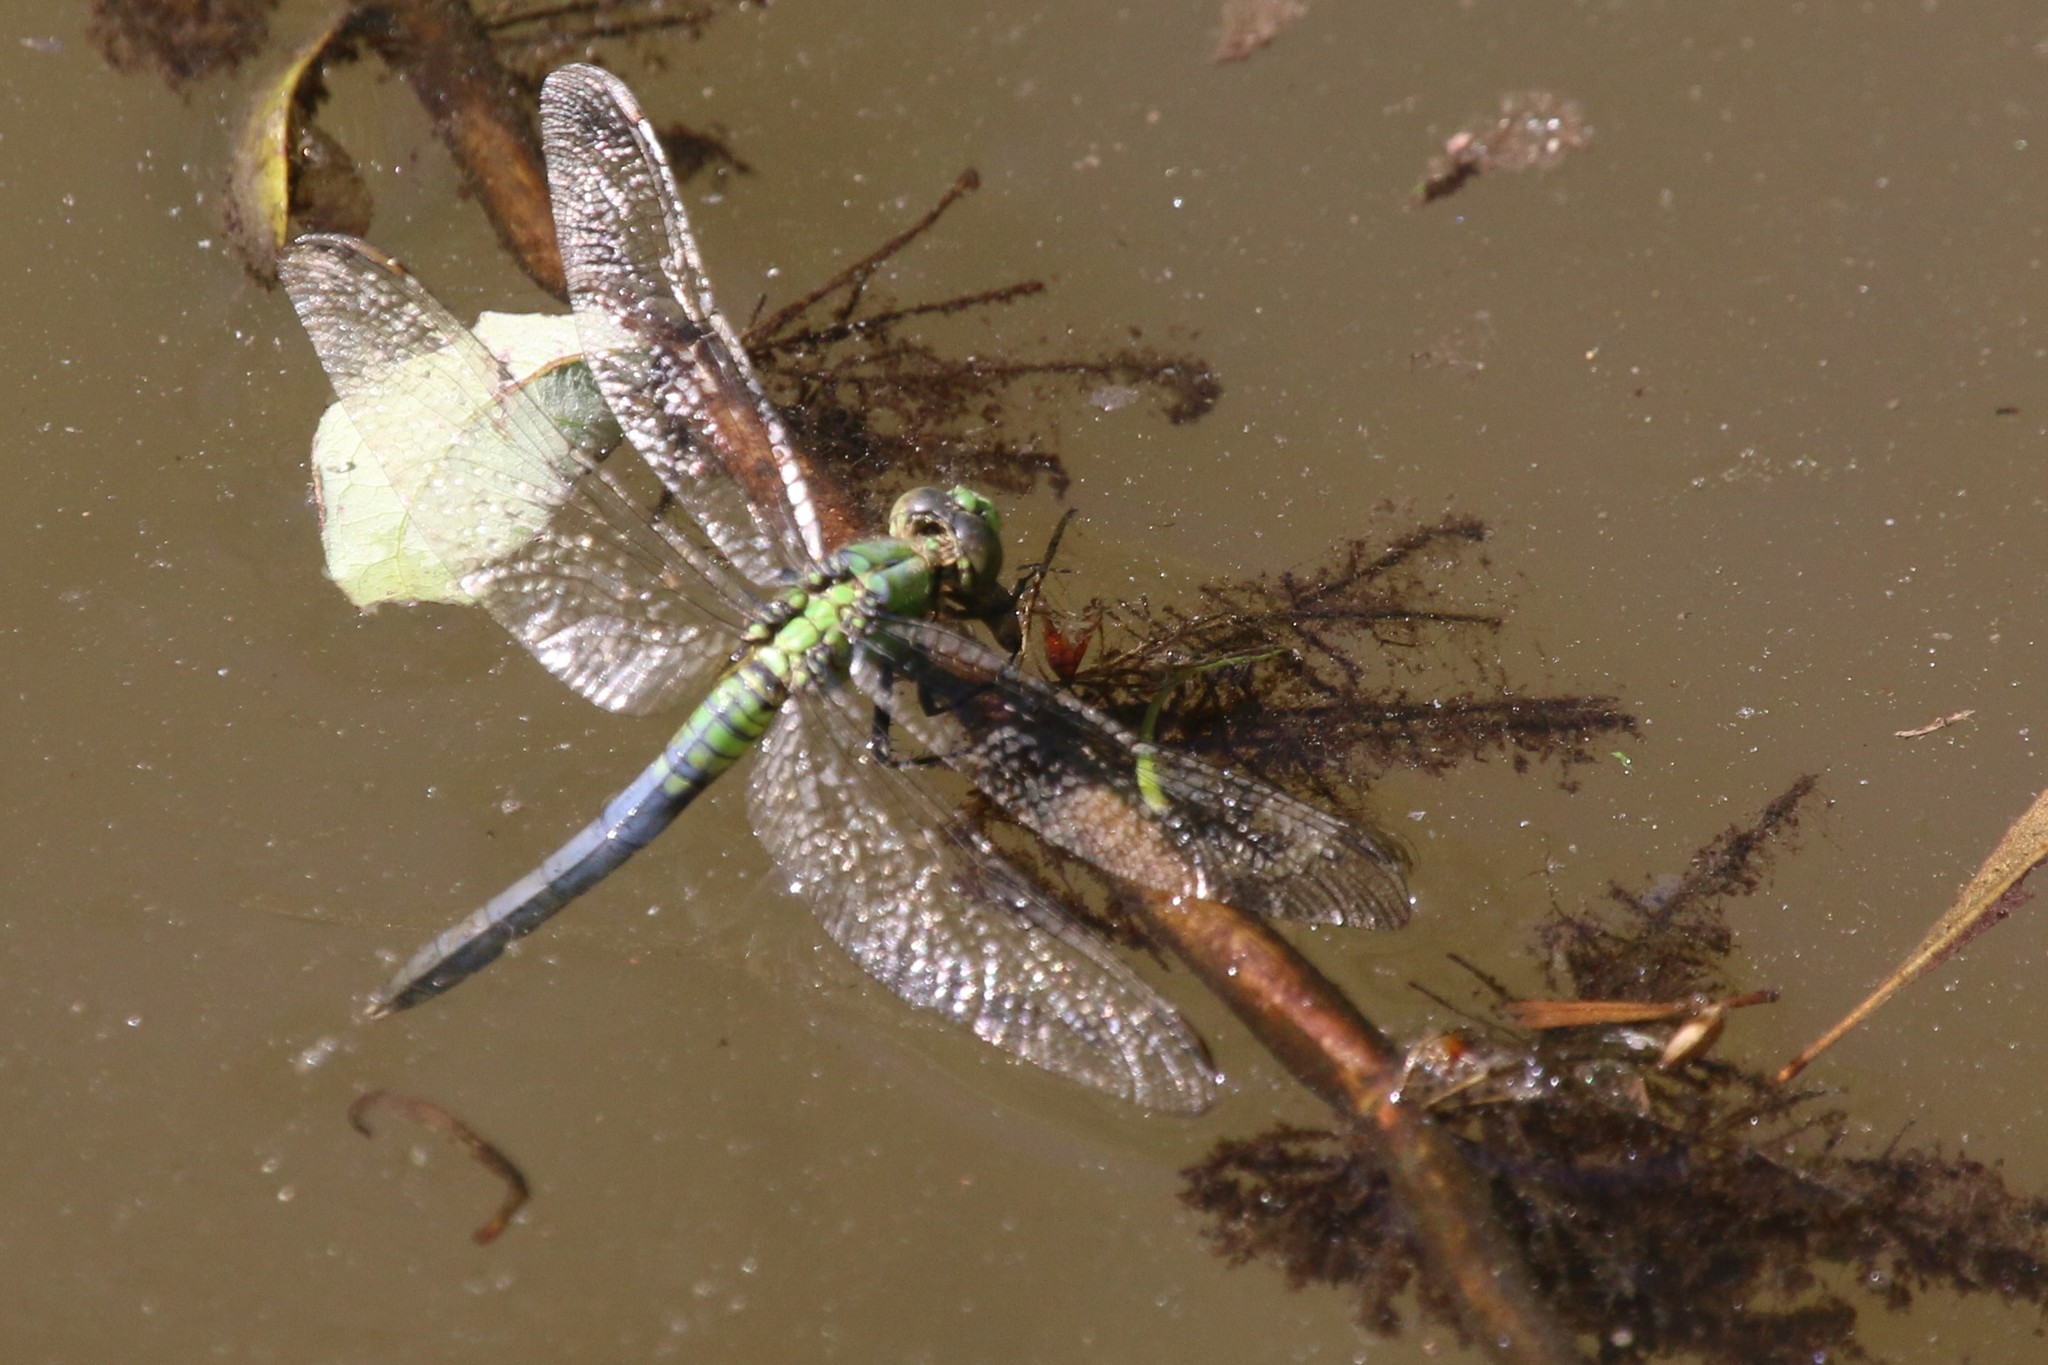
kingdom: Animalia
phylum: Arthropoda
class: Insecta
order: Odonata
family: Libellulidae
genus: Erythemis
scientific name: Erythemis simplicicollis
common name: Eastern pondhawk
